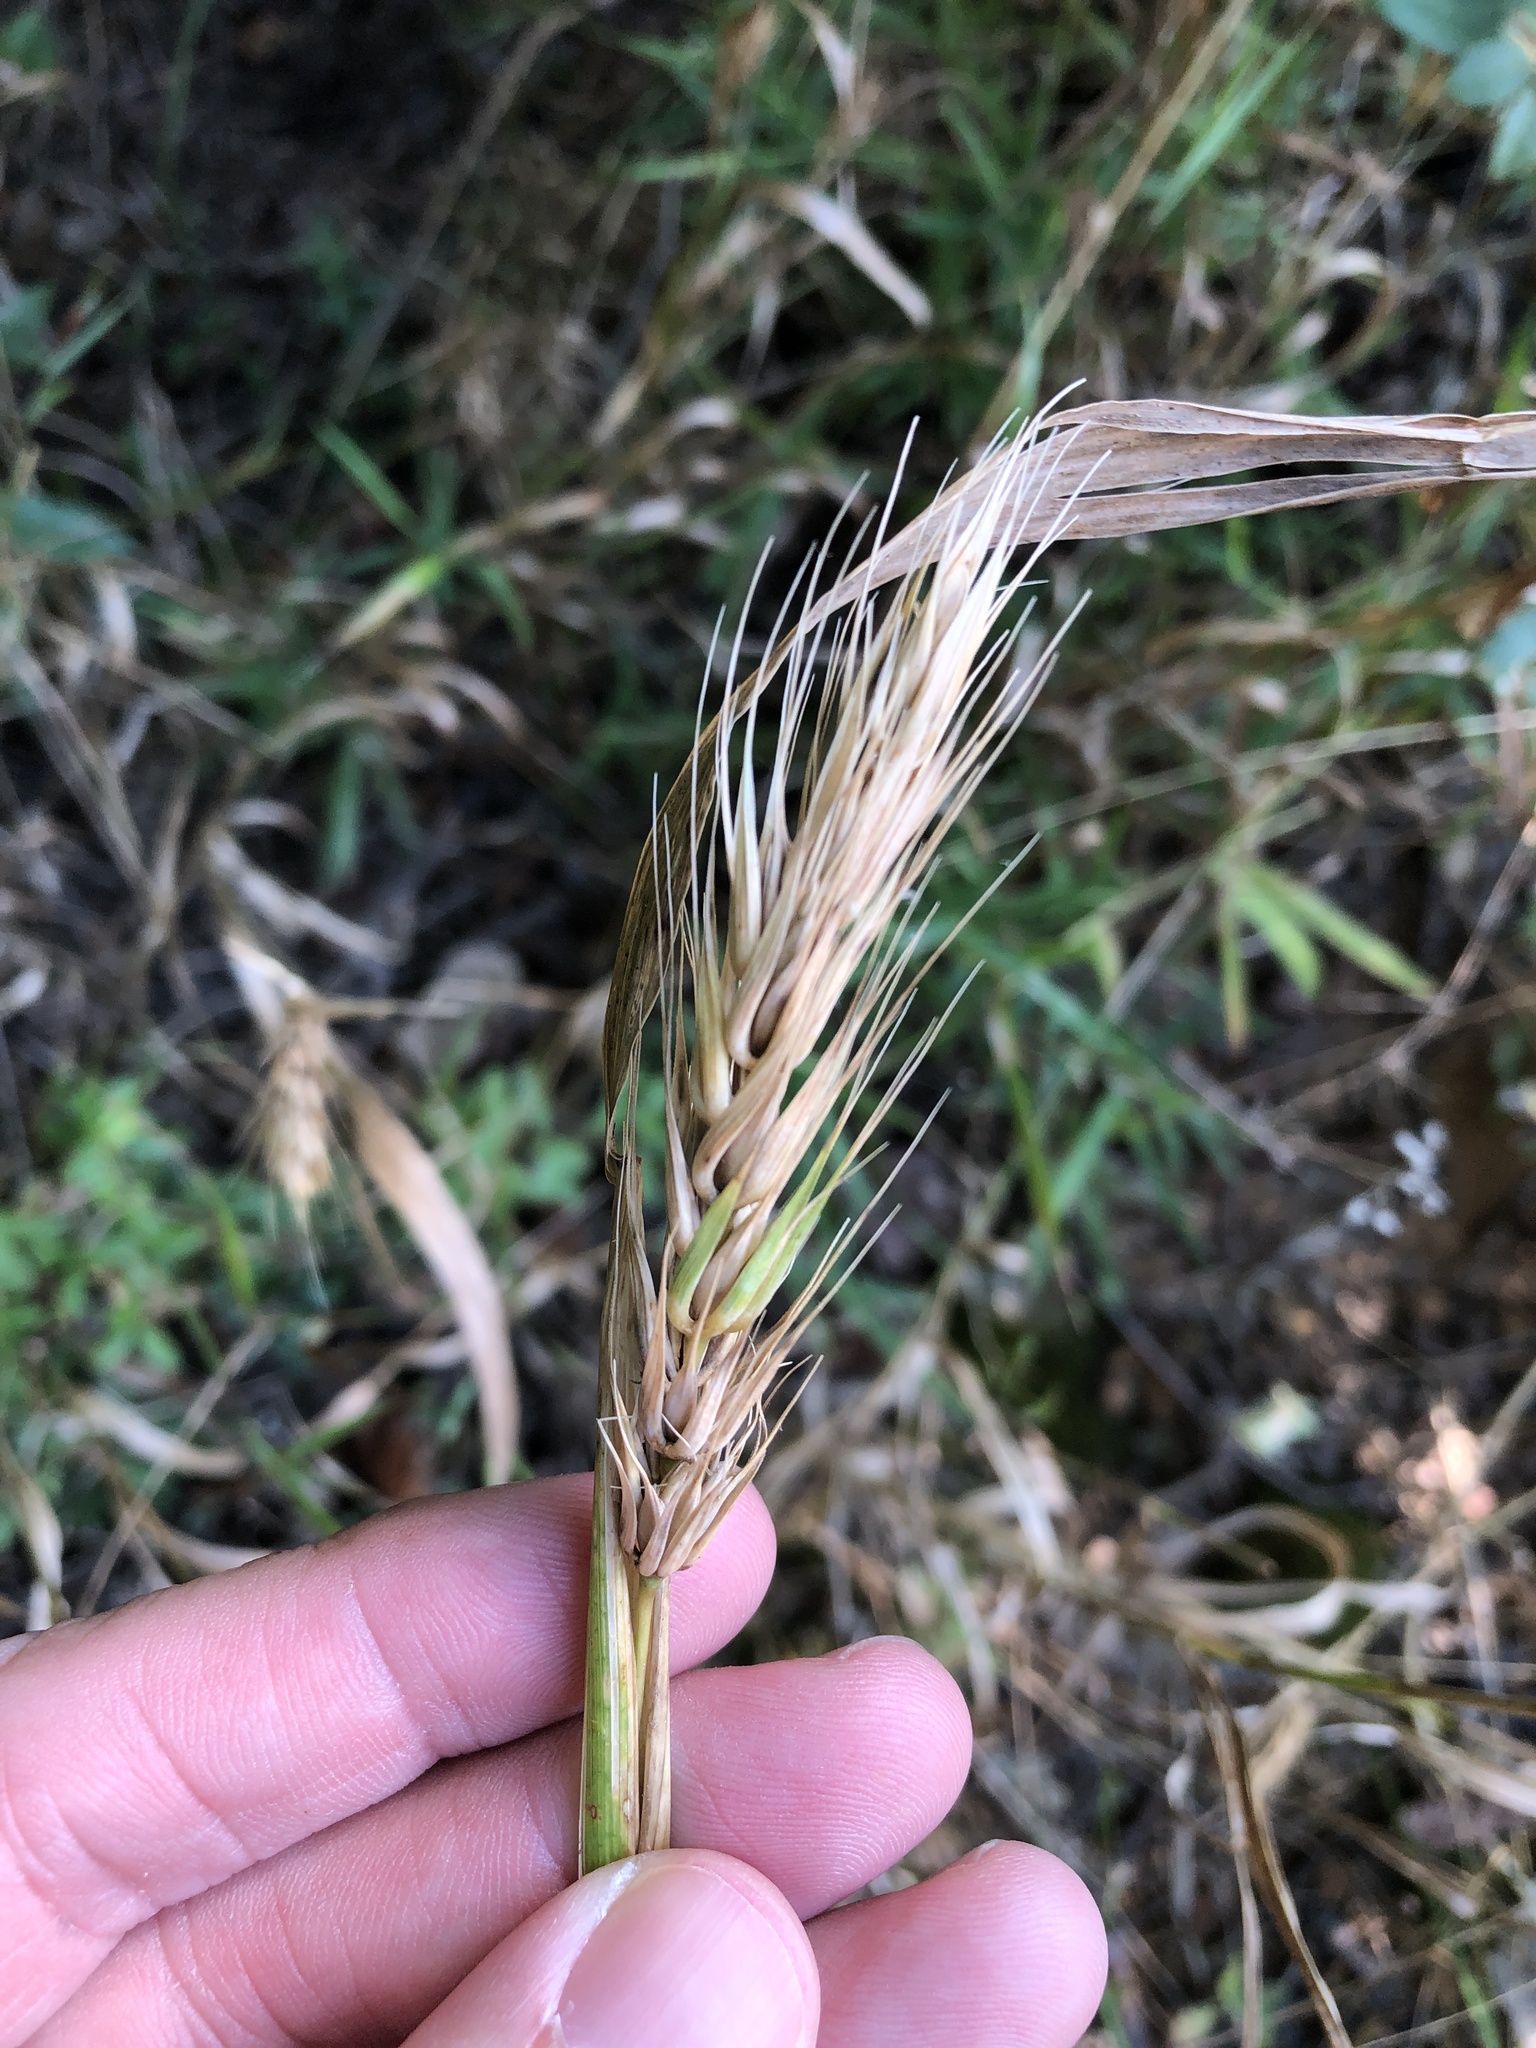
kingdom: Plantae
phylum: Tracheophyta
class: Liliopsida
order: Poales
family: Poaceae
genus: Elymus
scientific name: Elymus virginicus
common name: Common eastern wildrye
